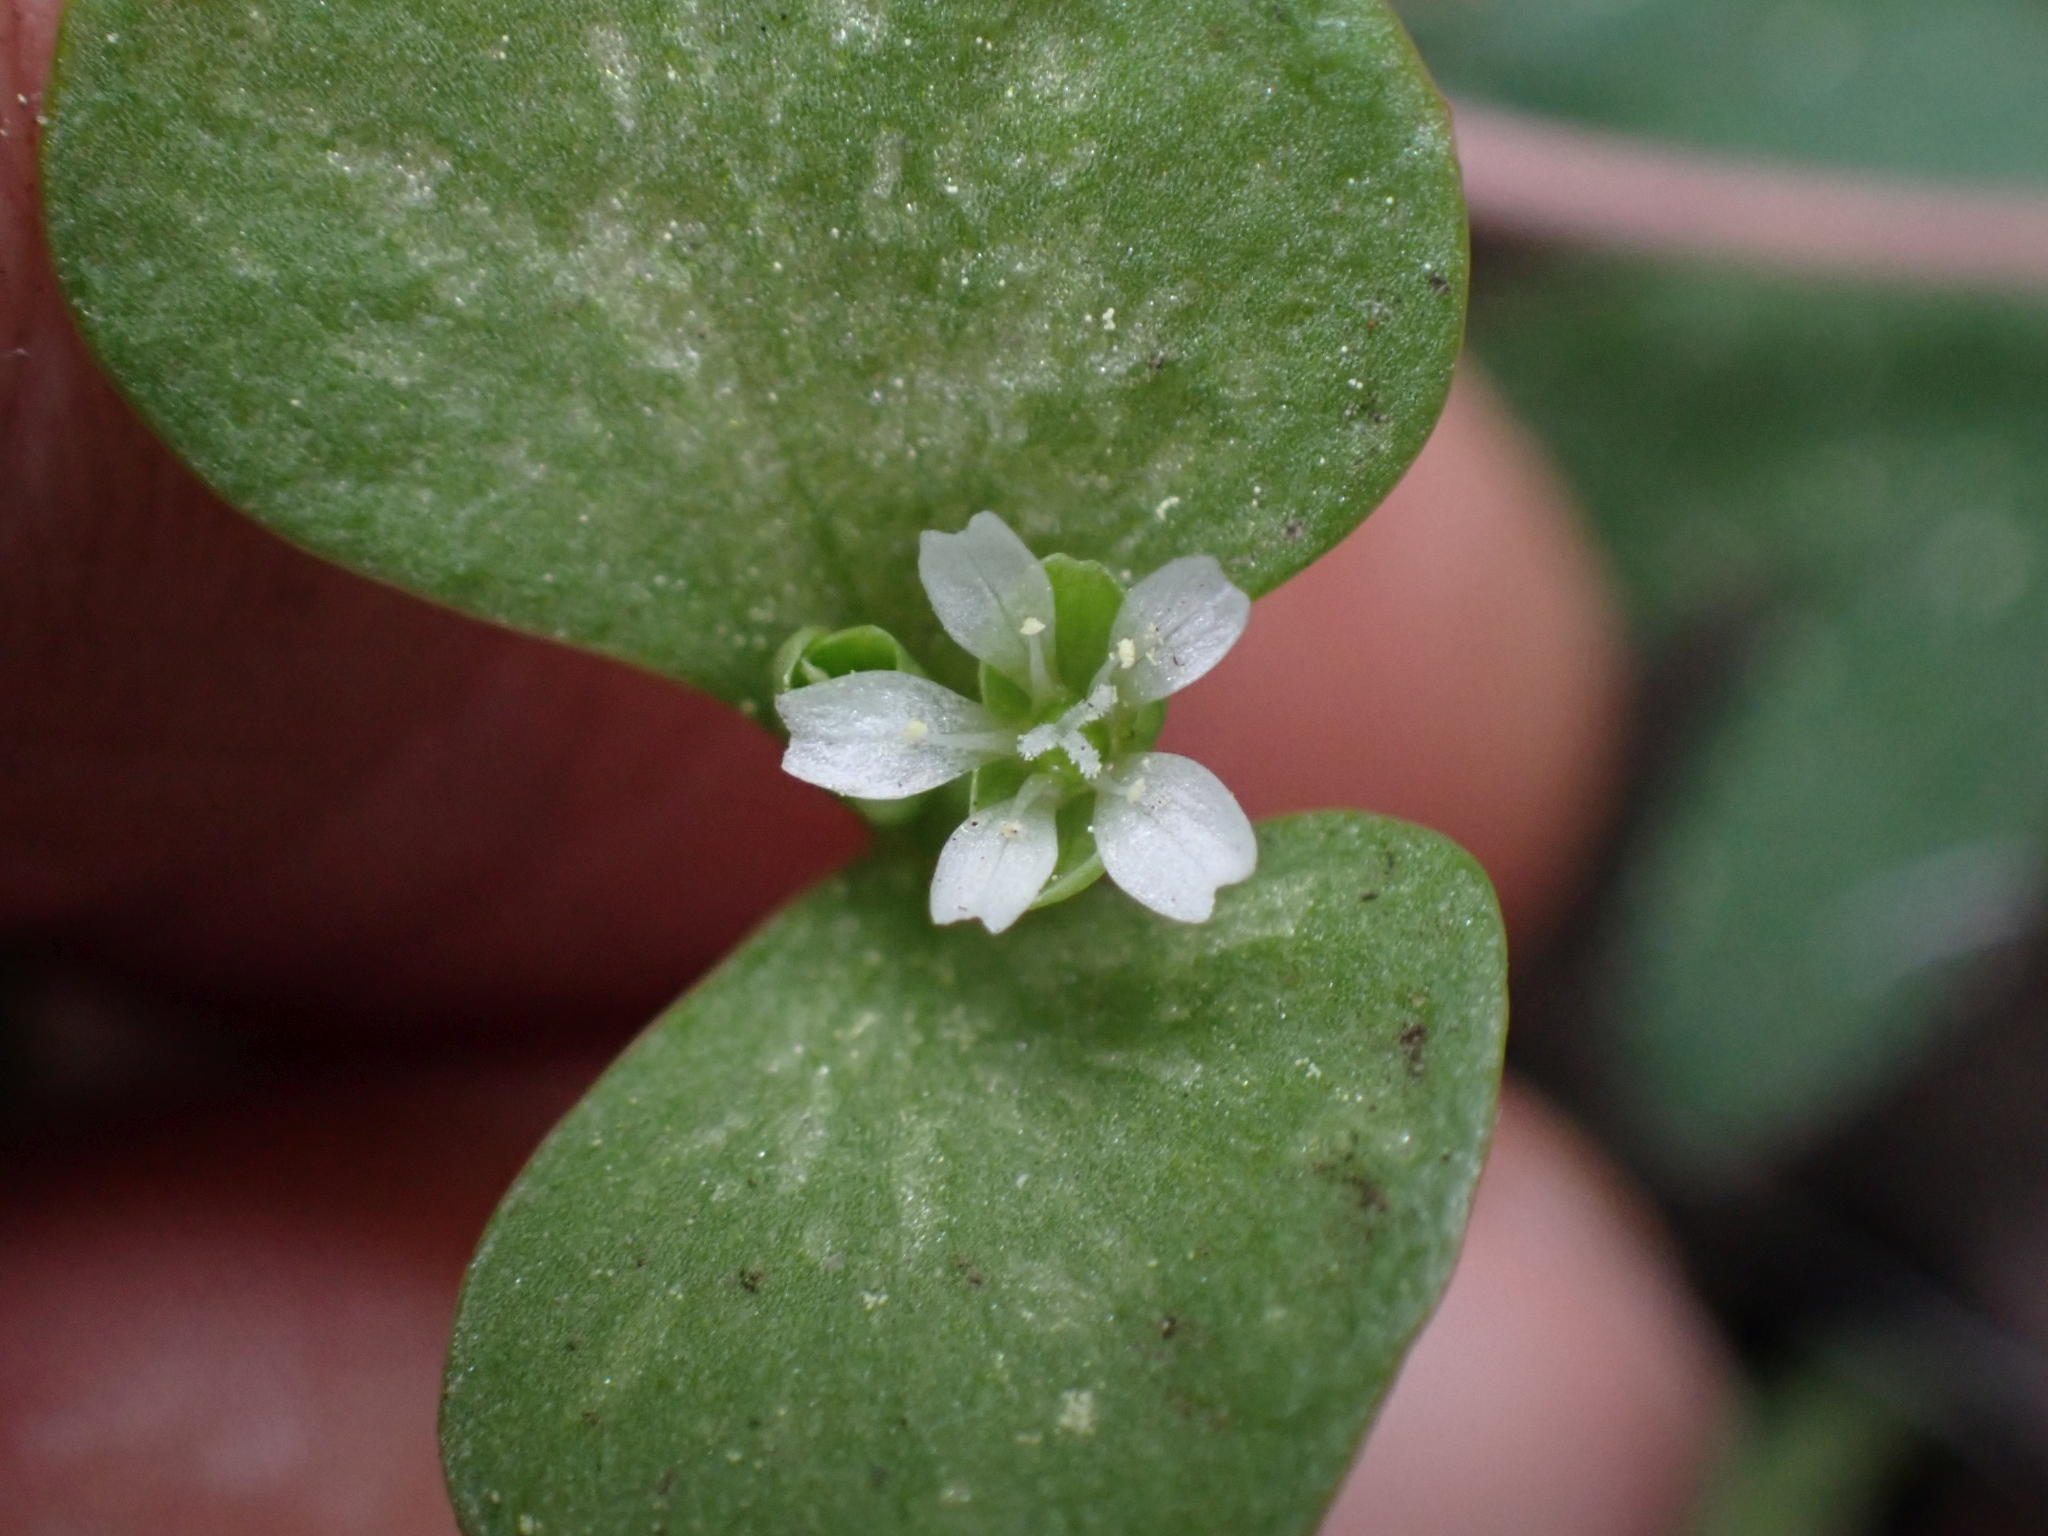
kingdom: Plantae
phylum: Tracheophyta
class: Magnoliopsida
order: Caryophyllales
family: Montiaceae
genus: Claytonia
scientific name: Claytonia rubra
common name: Erubescent miner's-lettuce
